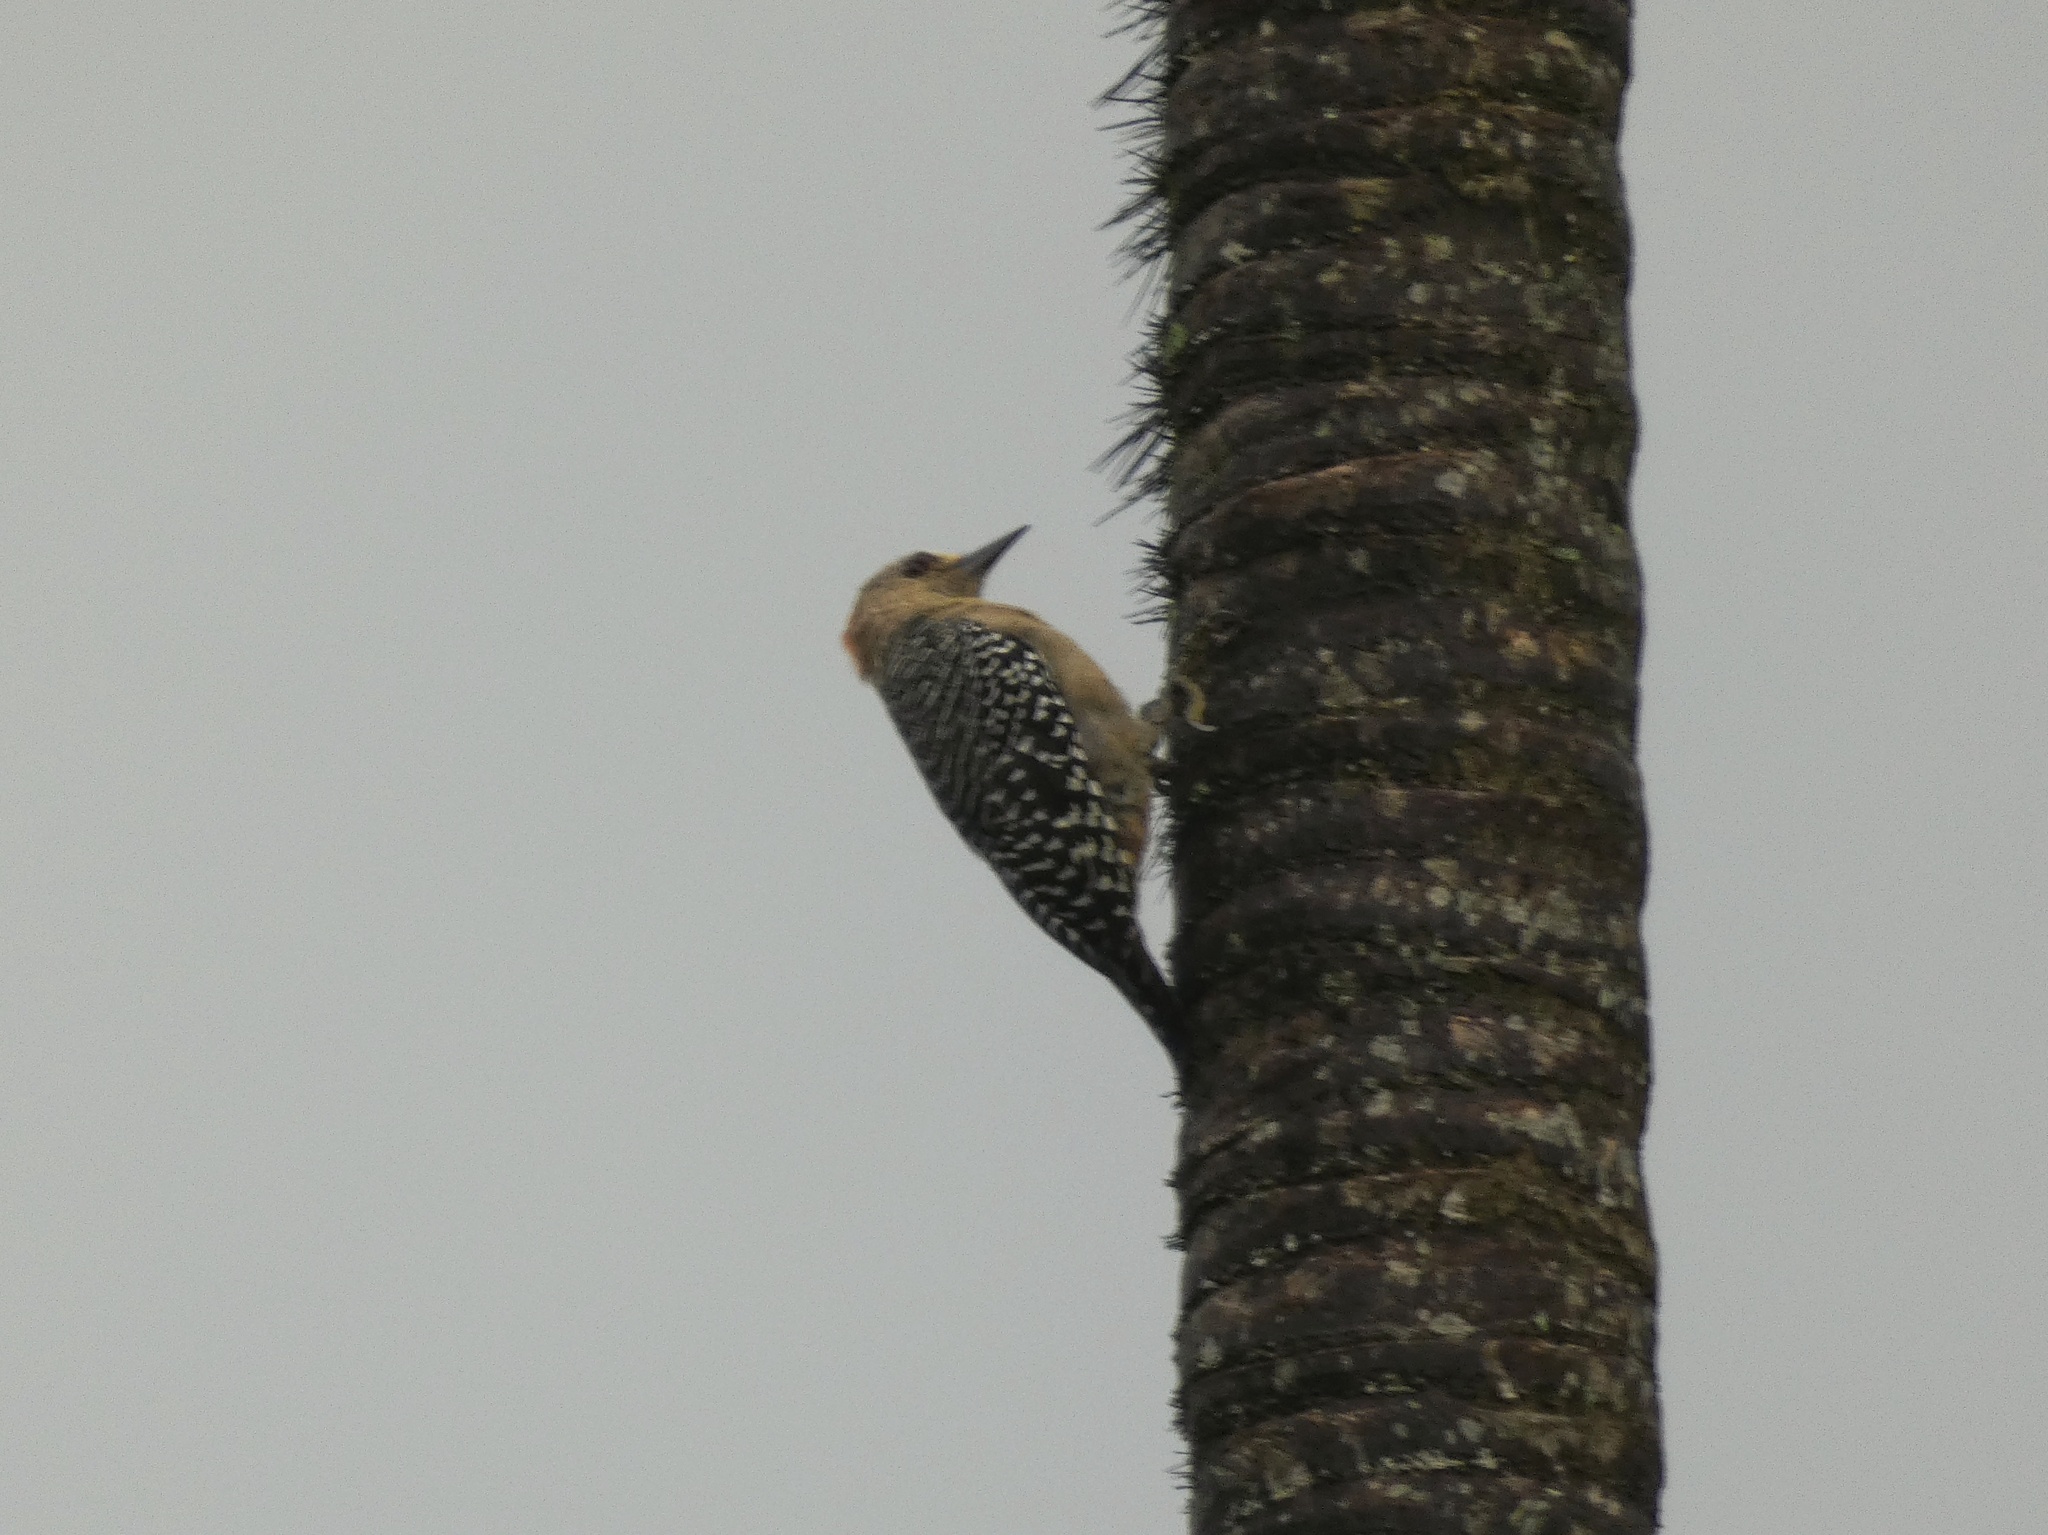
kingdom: Animalia
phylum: Chordata
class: Aves
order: Piciformes
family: Picidae
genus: Melanerpes
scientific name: Melanerpes rubricapillus
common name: Red-crowned woodpecker
